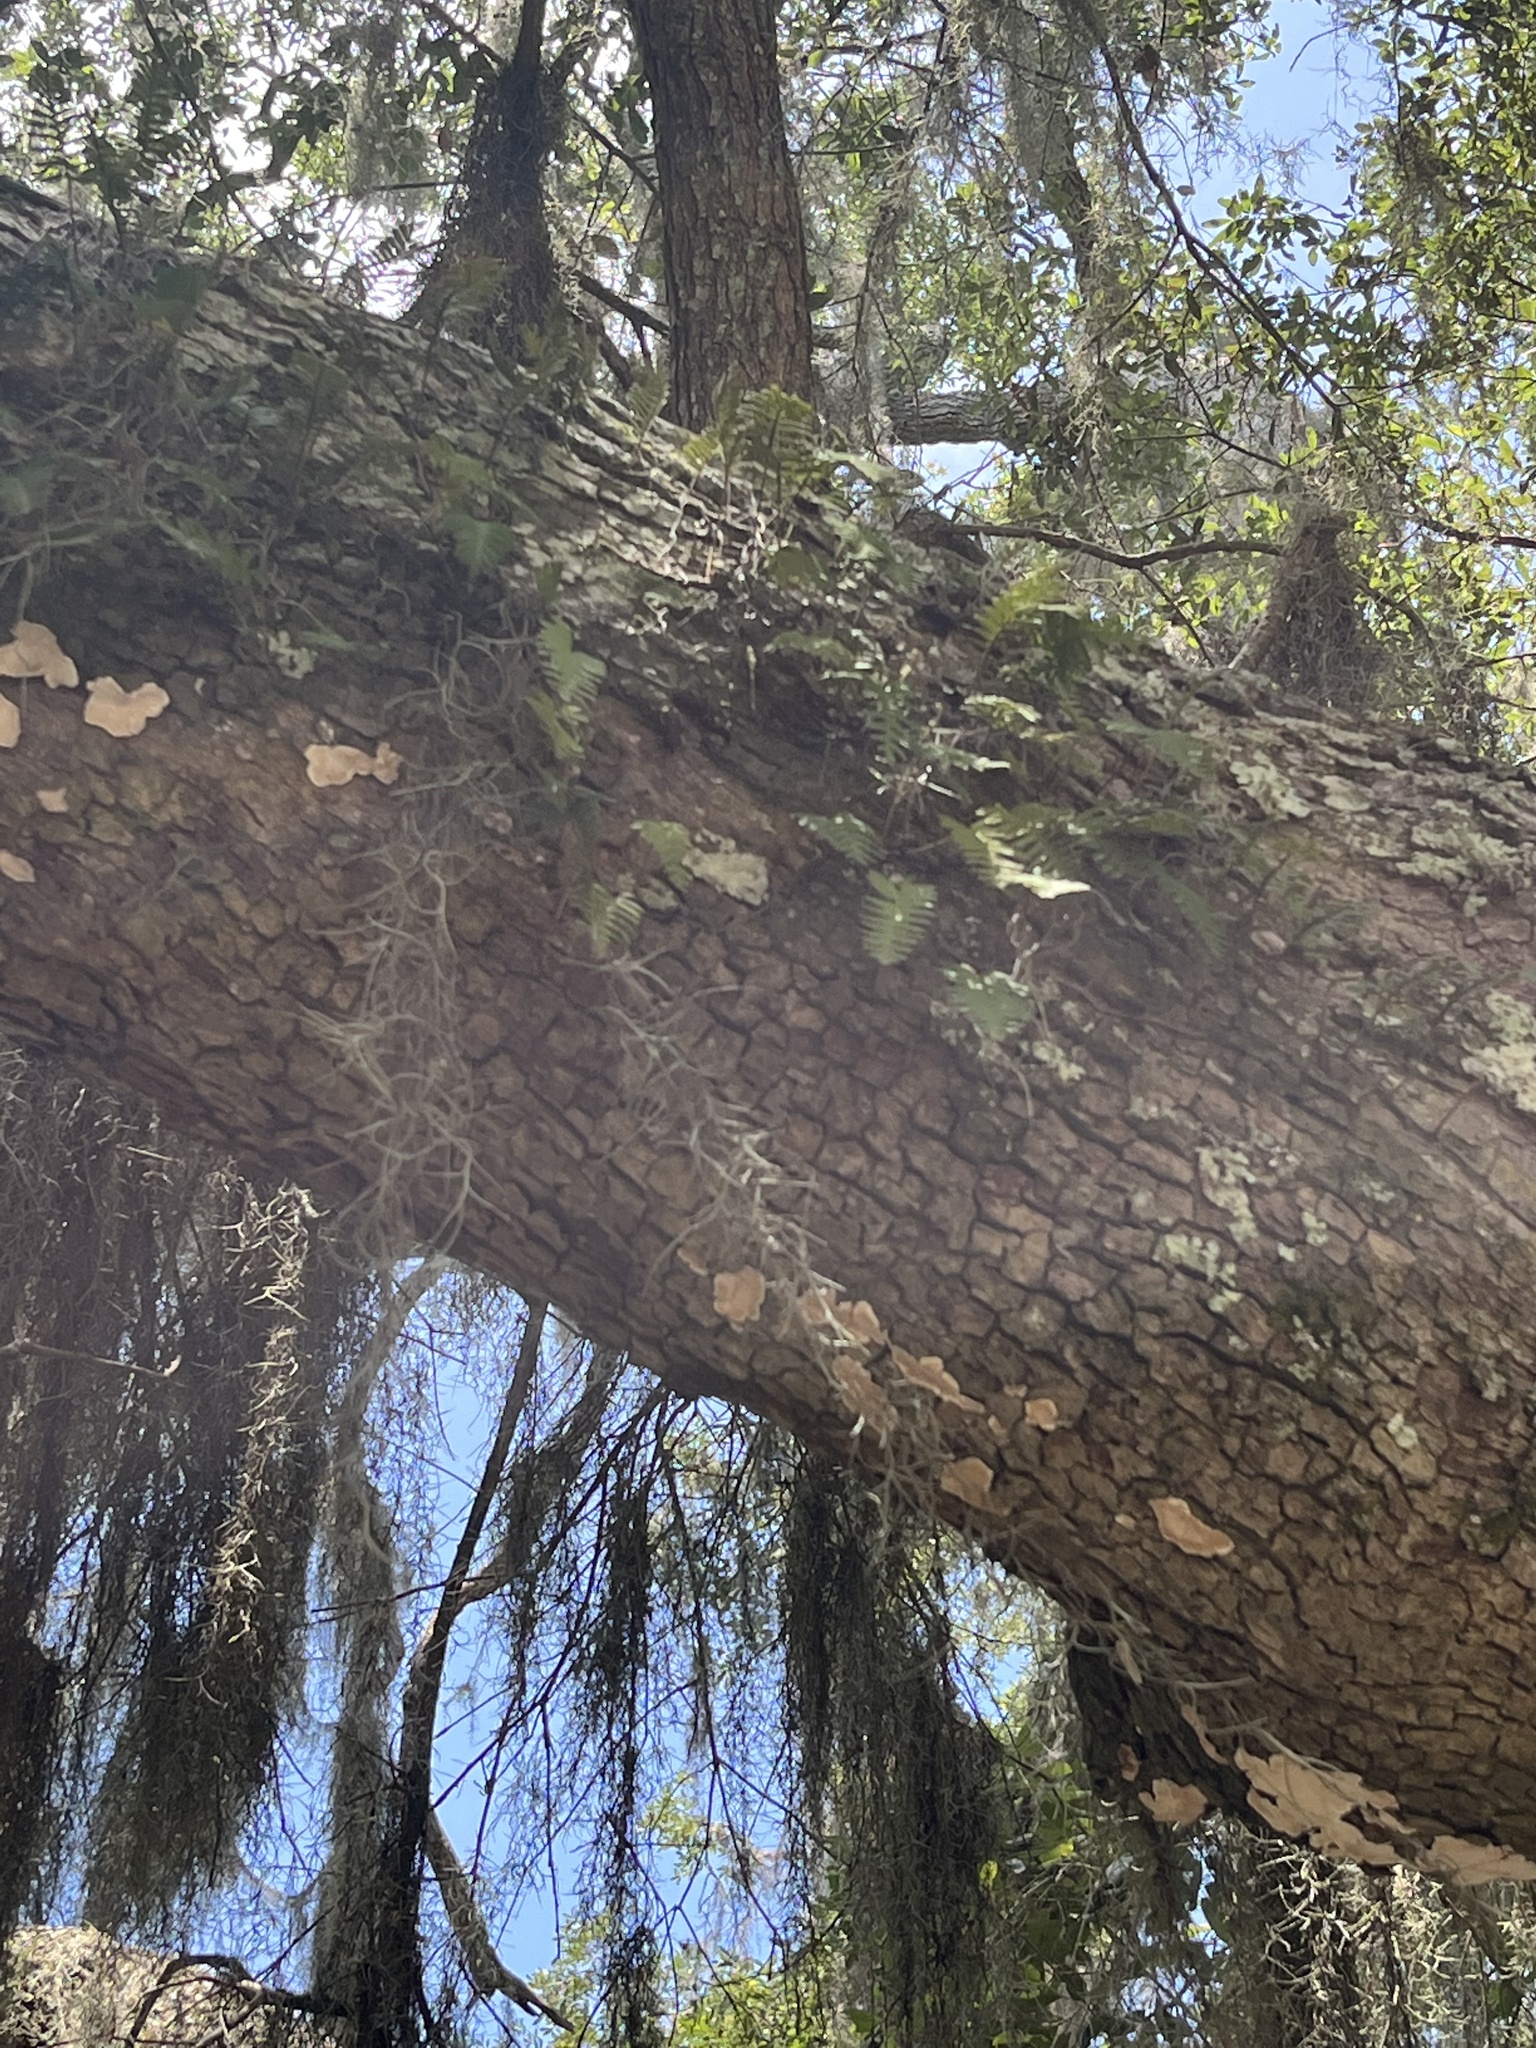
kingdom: Plantae
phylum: Tracheophyta
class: Polypodiopsida
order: Polypodiales
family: Polypodiaceae
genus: Pleopeltis
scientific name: Pleopeltis michauxiana
